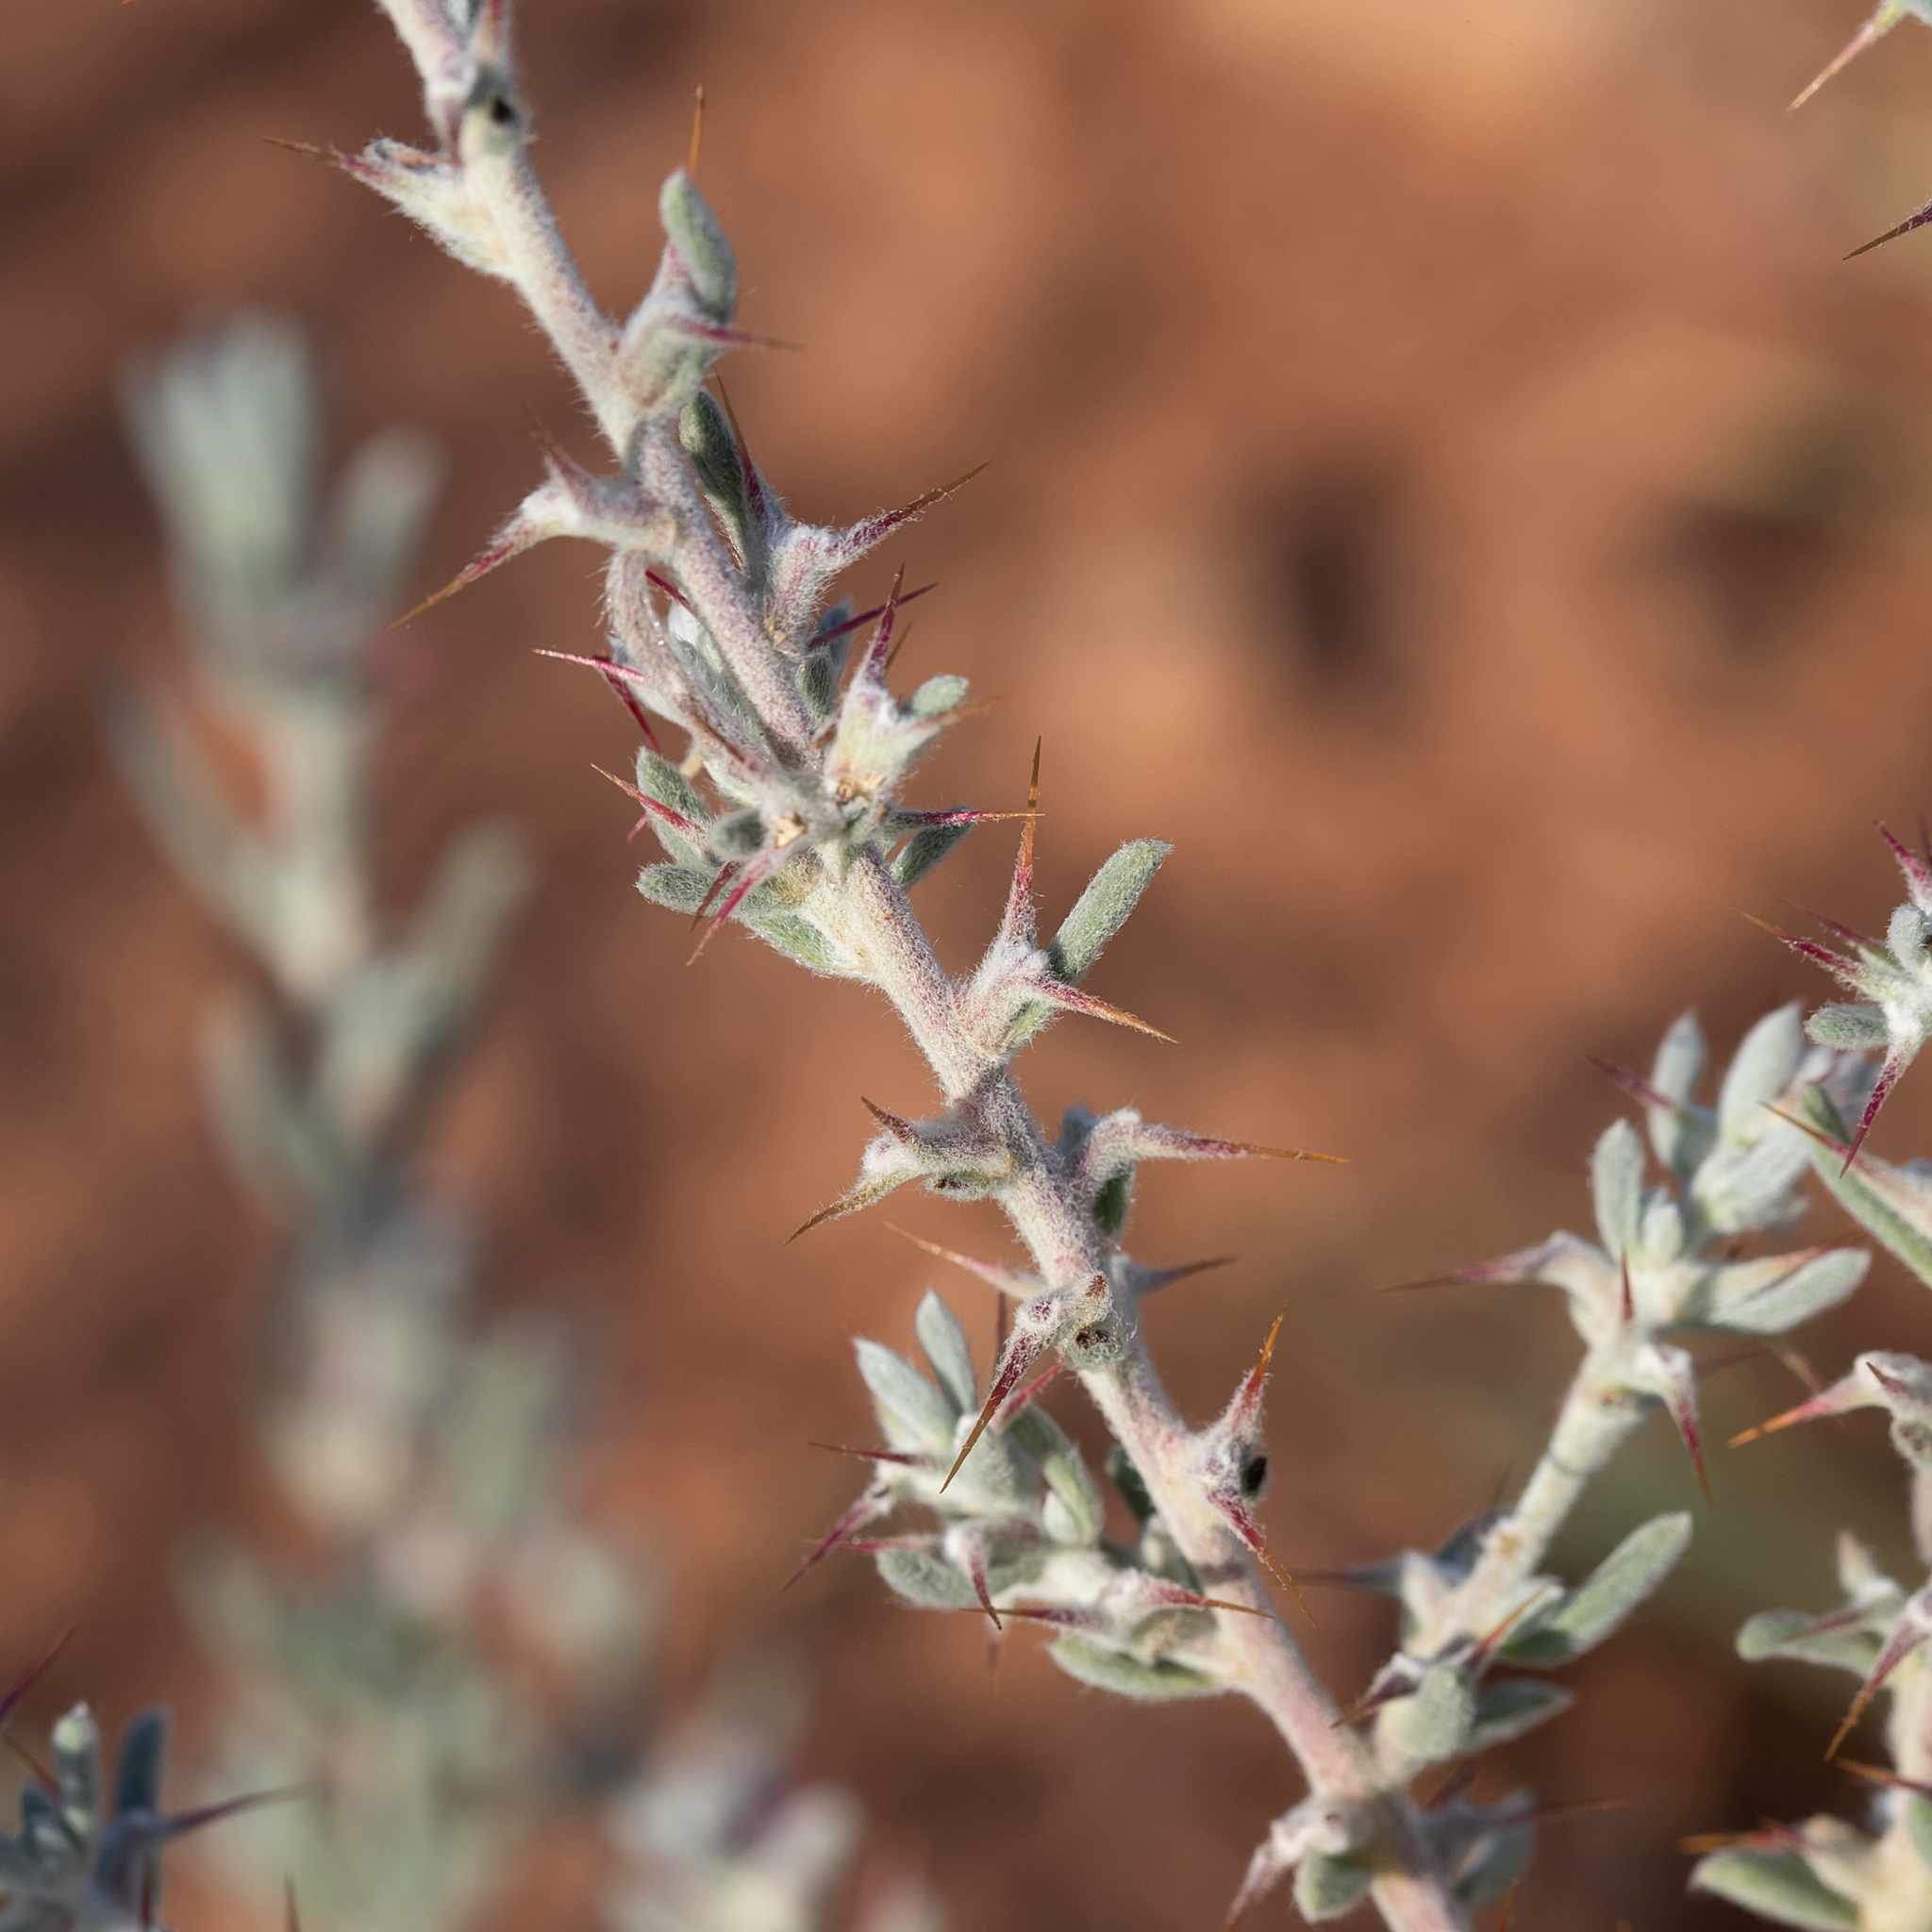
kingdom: Plantae
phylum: Tracheophyta
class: Magnoliopsida
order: Caryophyllales
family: Amaranthaceae
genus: Sclerolaena
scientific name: Sclerolaena obliquicuspis
